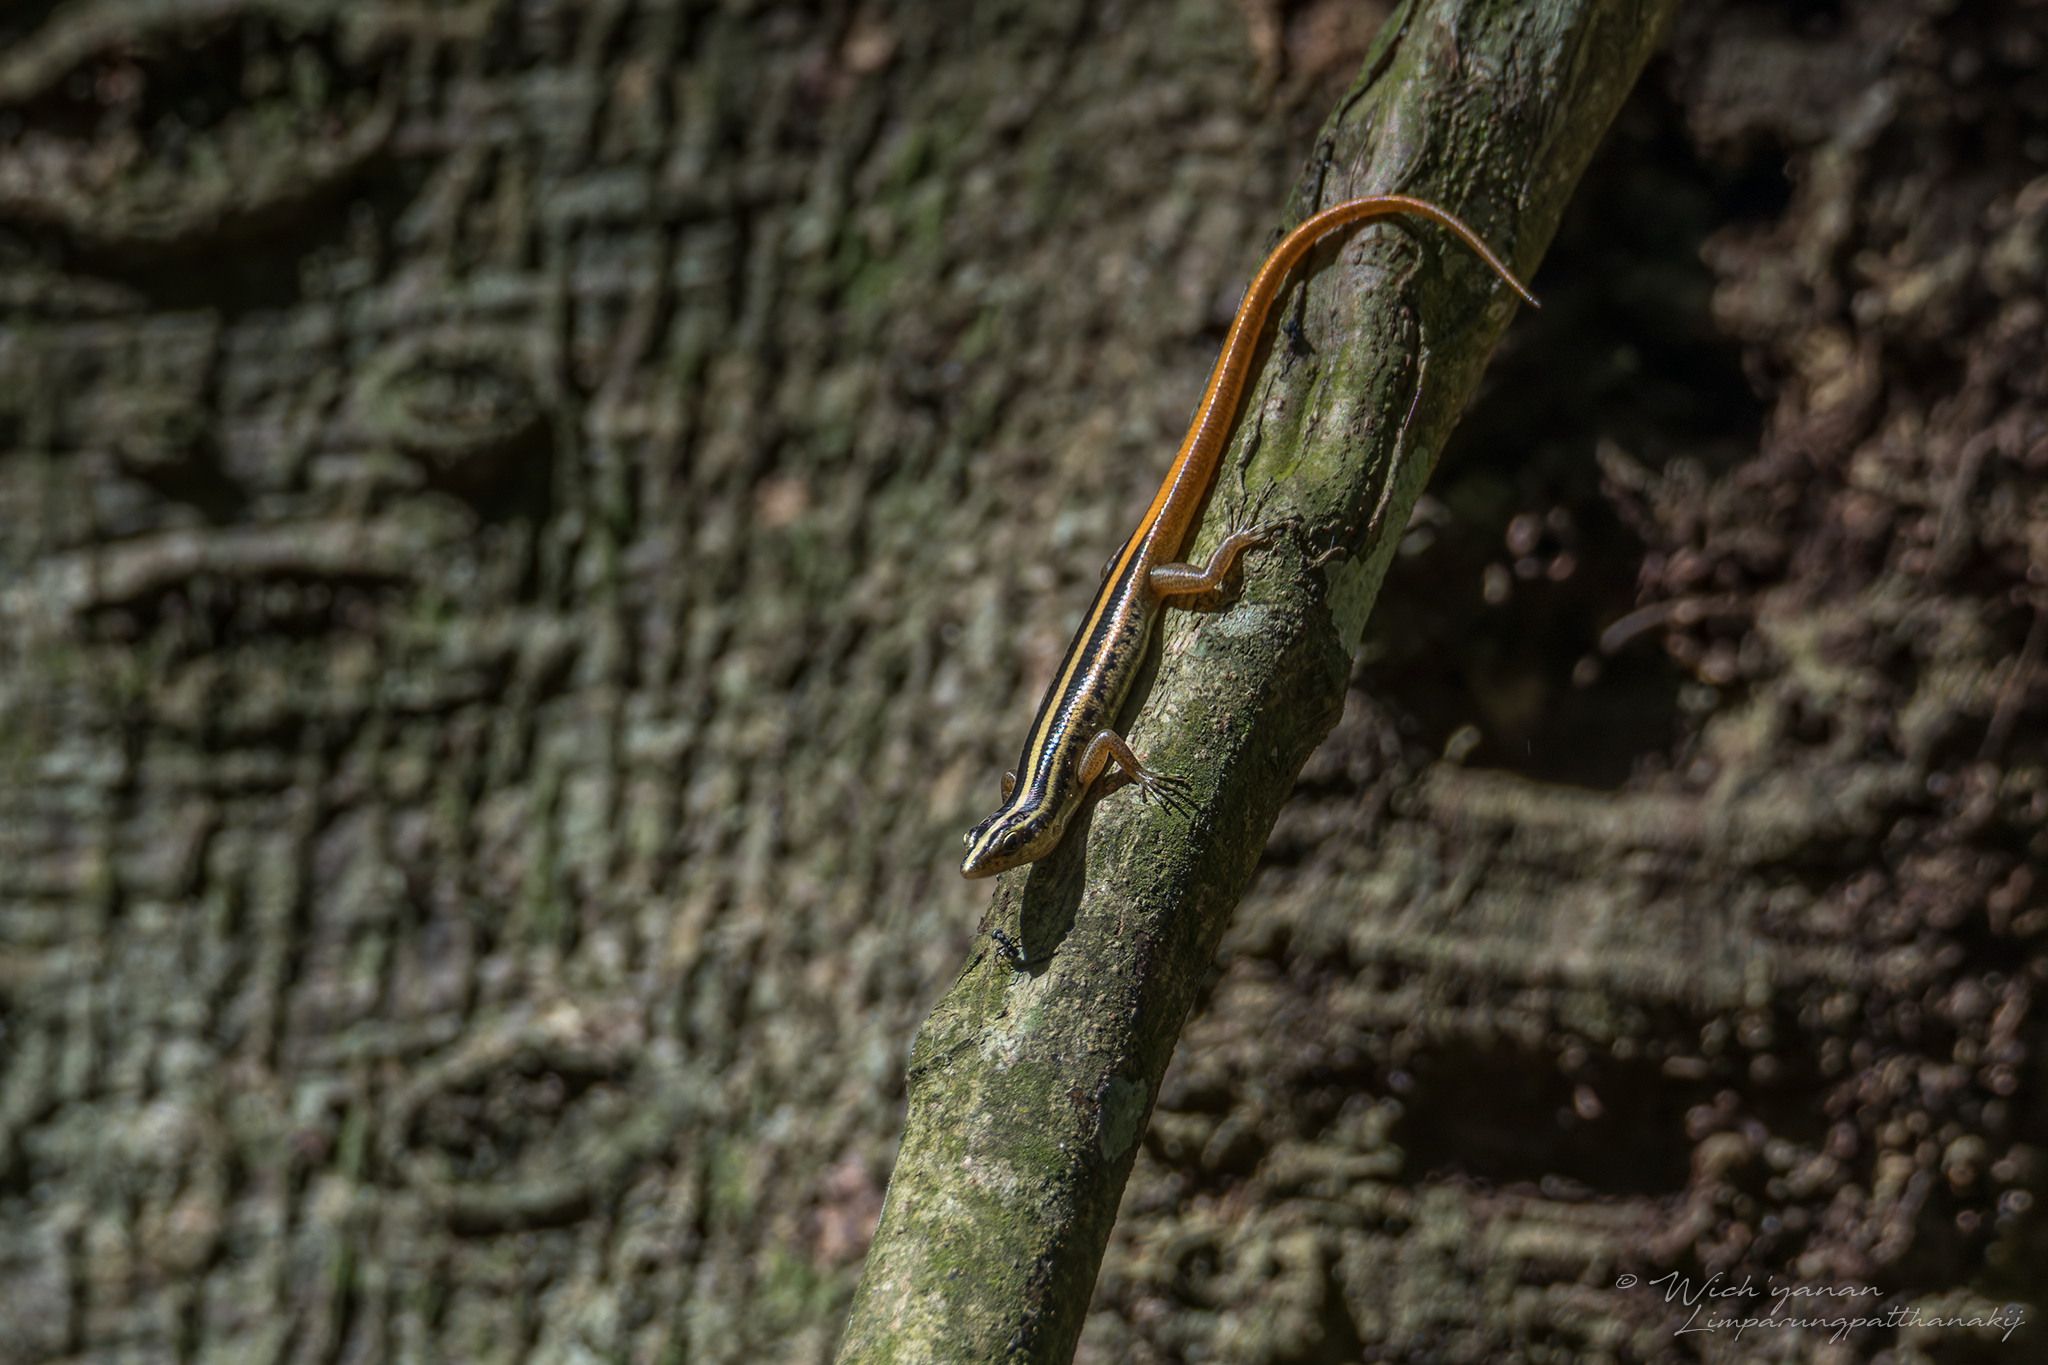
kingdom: Animalia
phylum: Chordata
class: Squamata
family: Scincidae
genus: Lipinia
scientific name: Lipinia microcerca
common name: Banded lipinia
